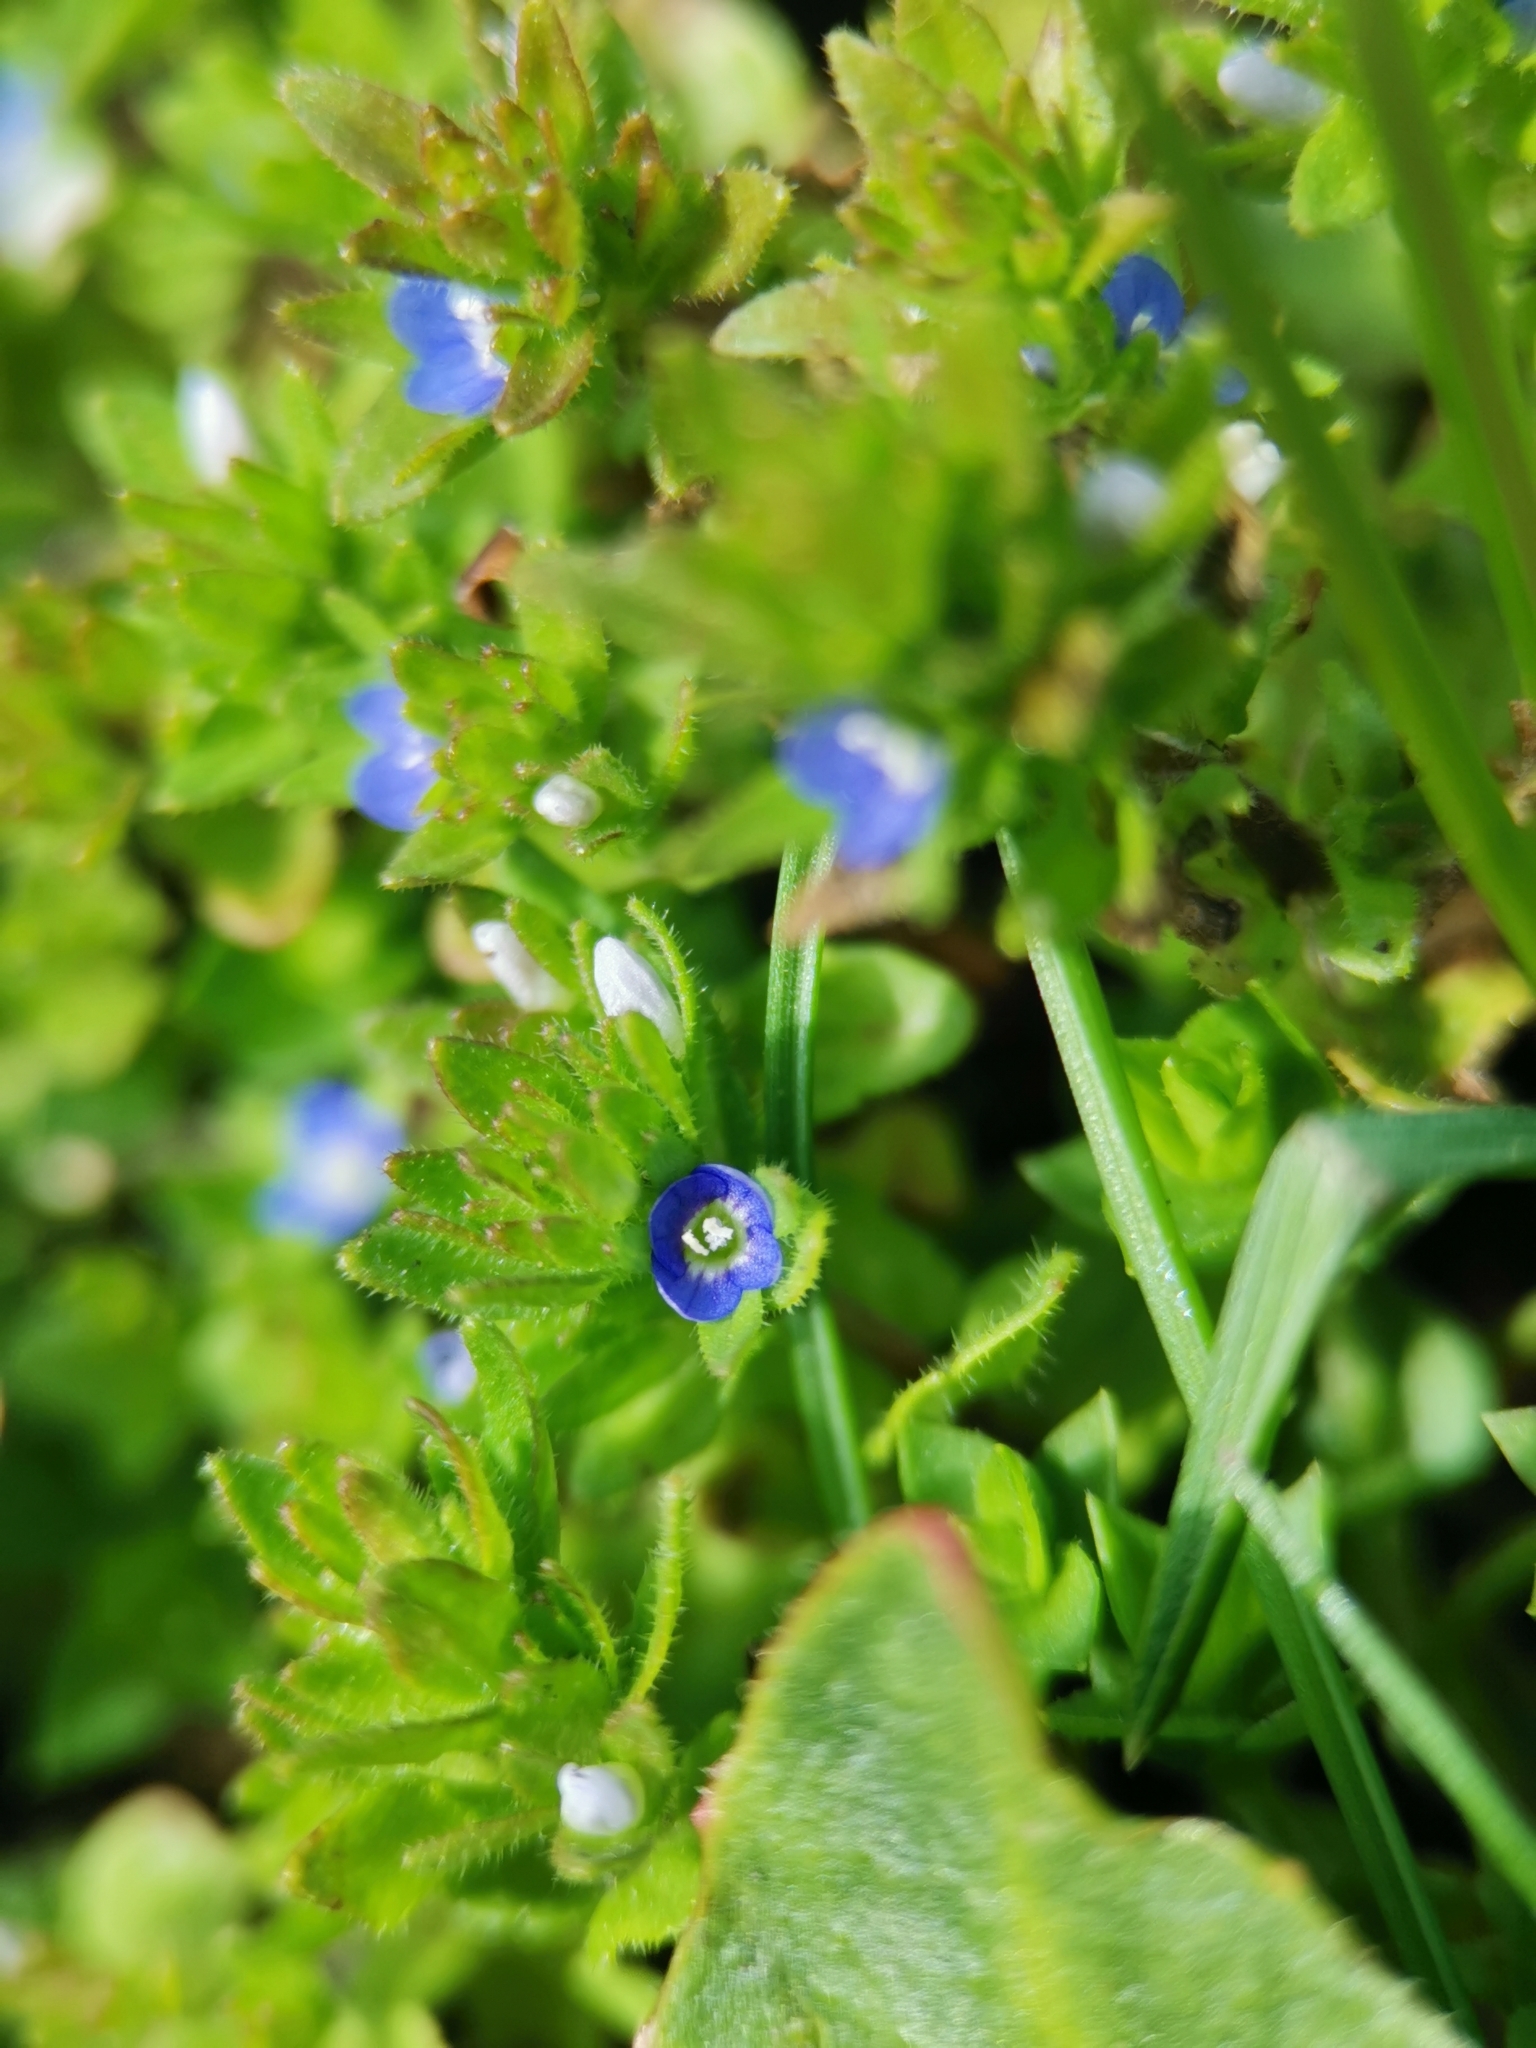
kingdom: Plantae
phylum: Tracheophyta
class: Magnoliopsida
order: Lamiales
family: Plantaginaceae
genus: Veronica
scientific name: Veronica arvensis
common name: Corn speedwell
